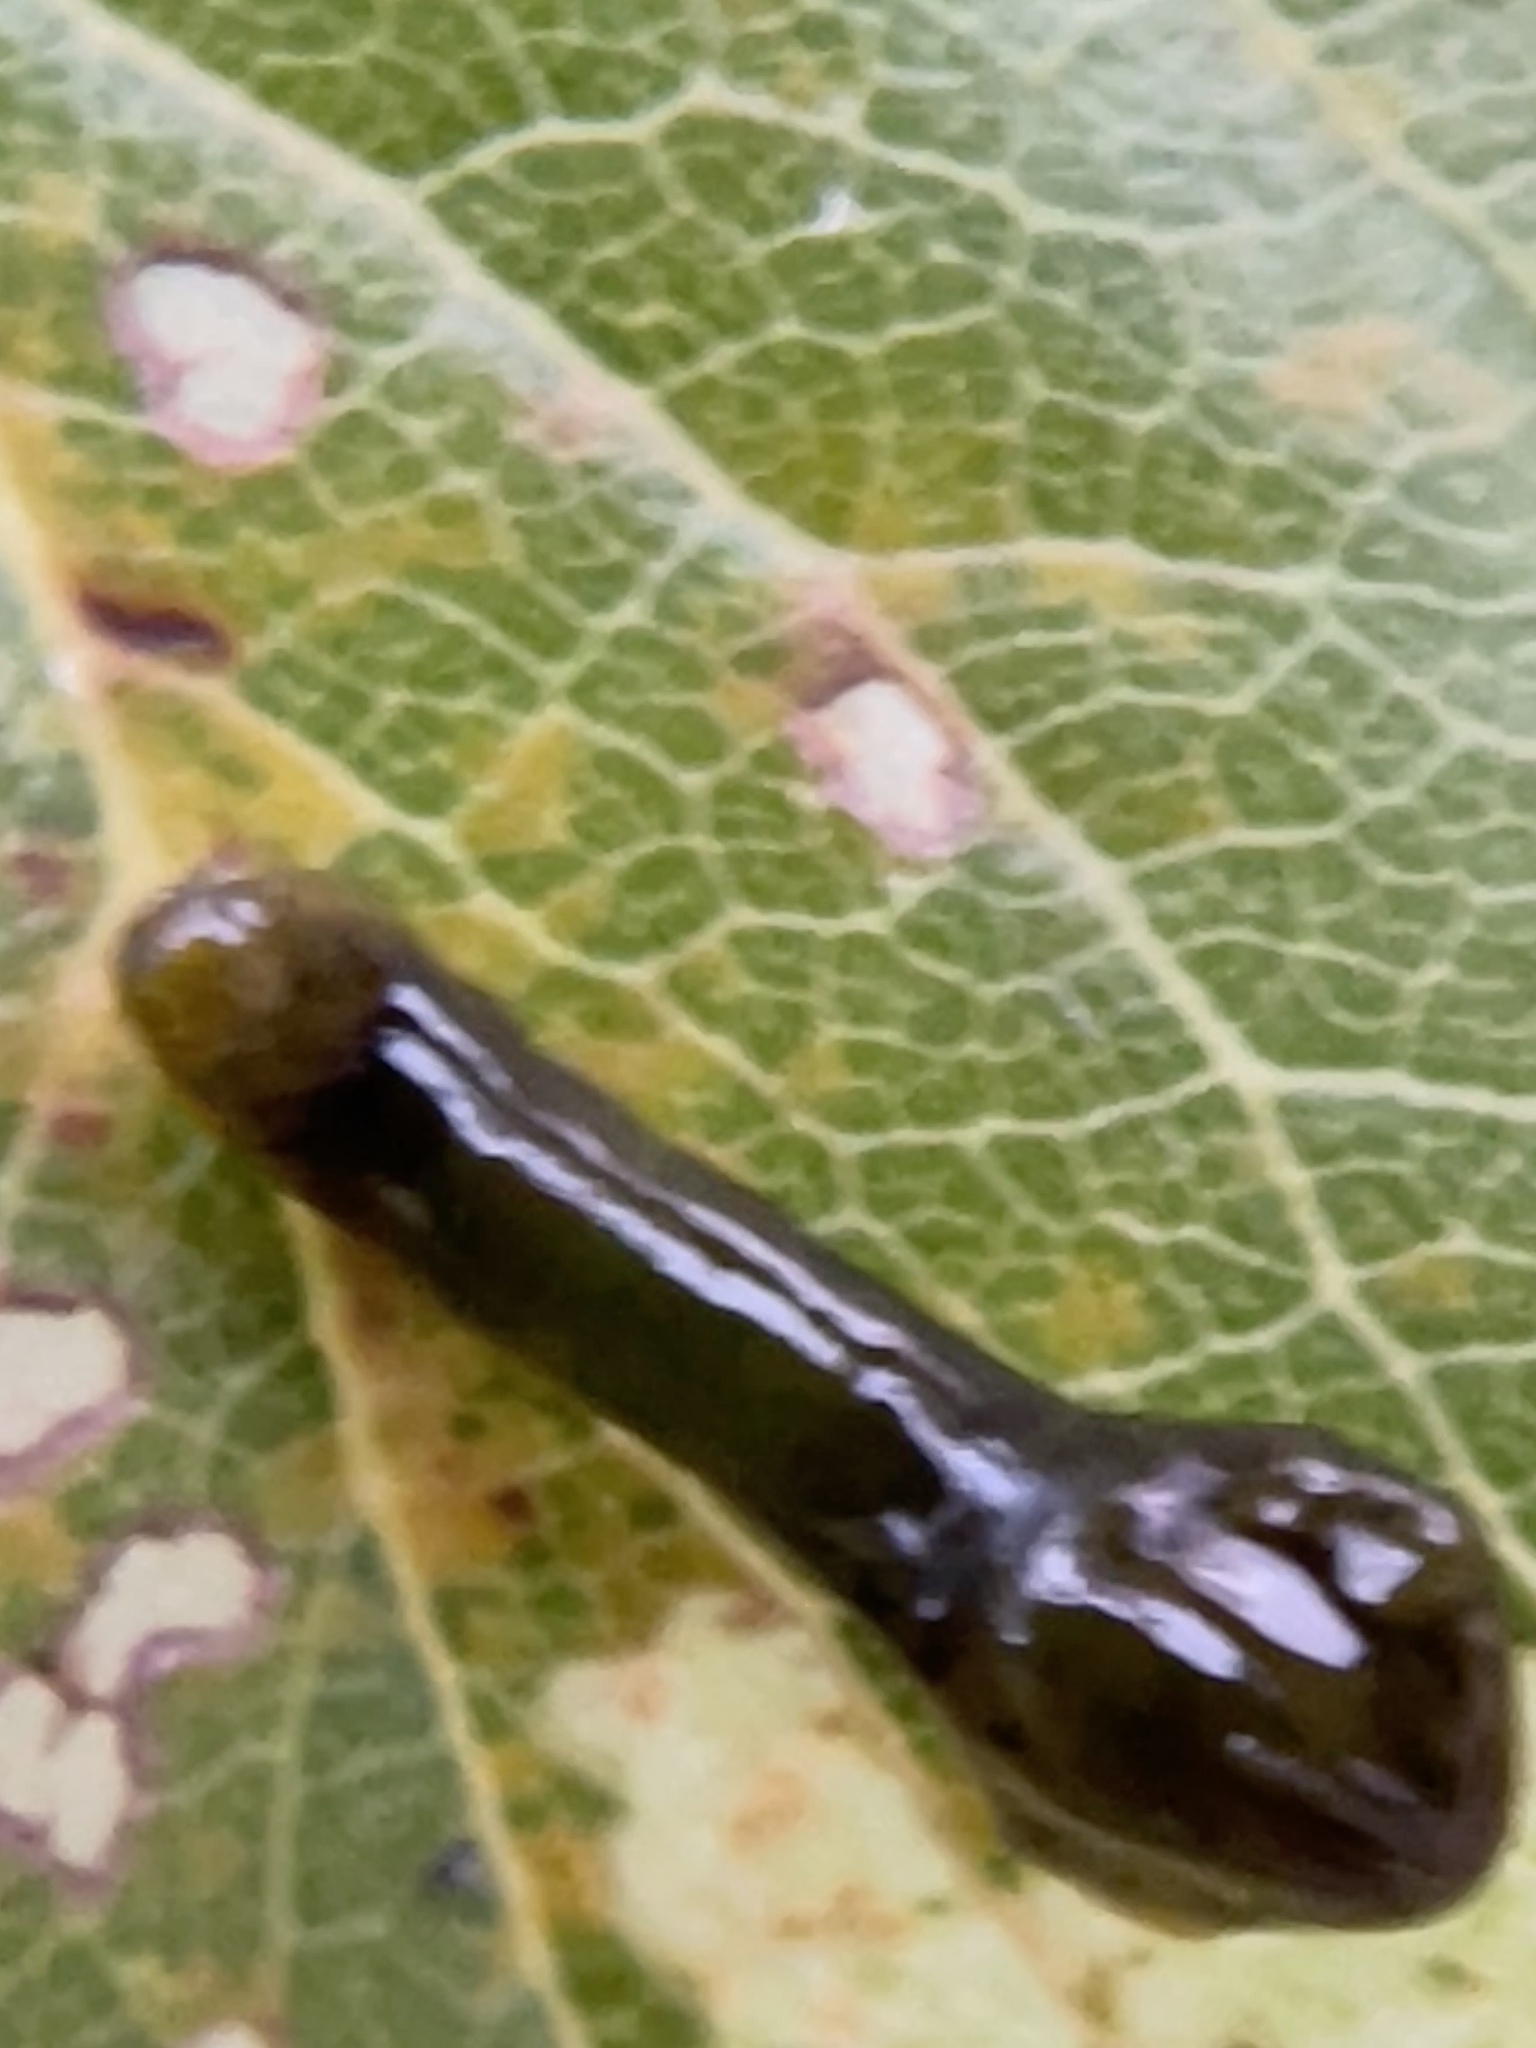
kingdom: Animalia
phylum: Arthropoda
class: Insecta
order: Hymenoptera
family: Tenthredinidae
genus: Caliroa
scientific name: Caliroa cerasi
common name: Pear sawfly
